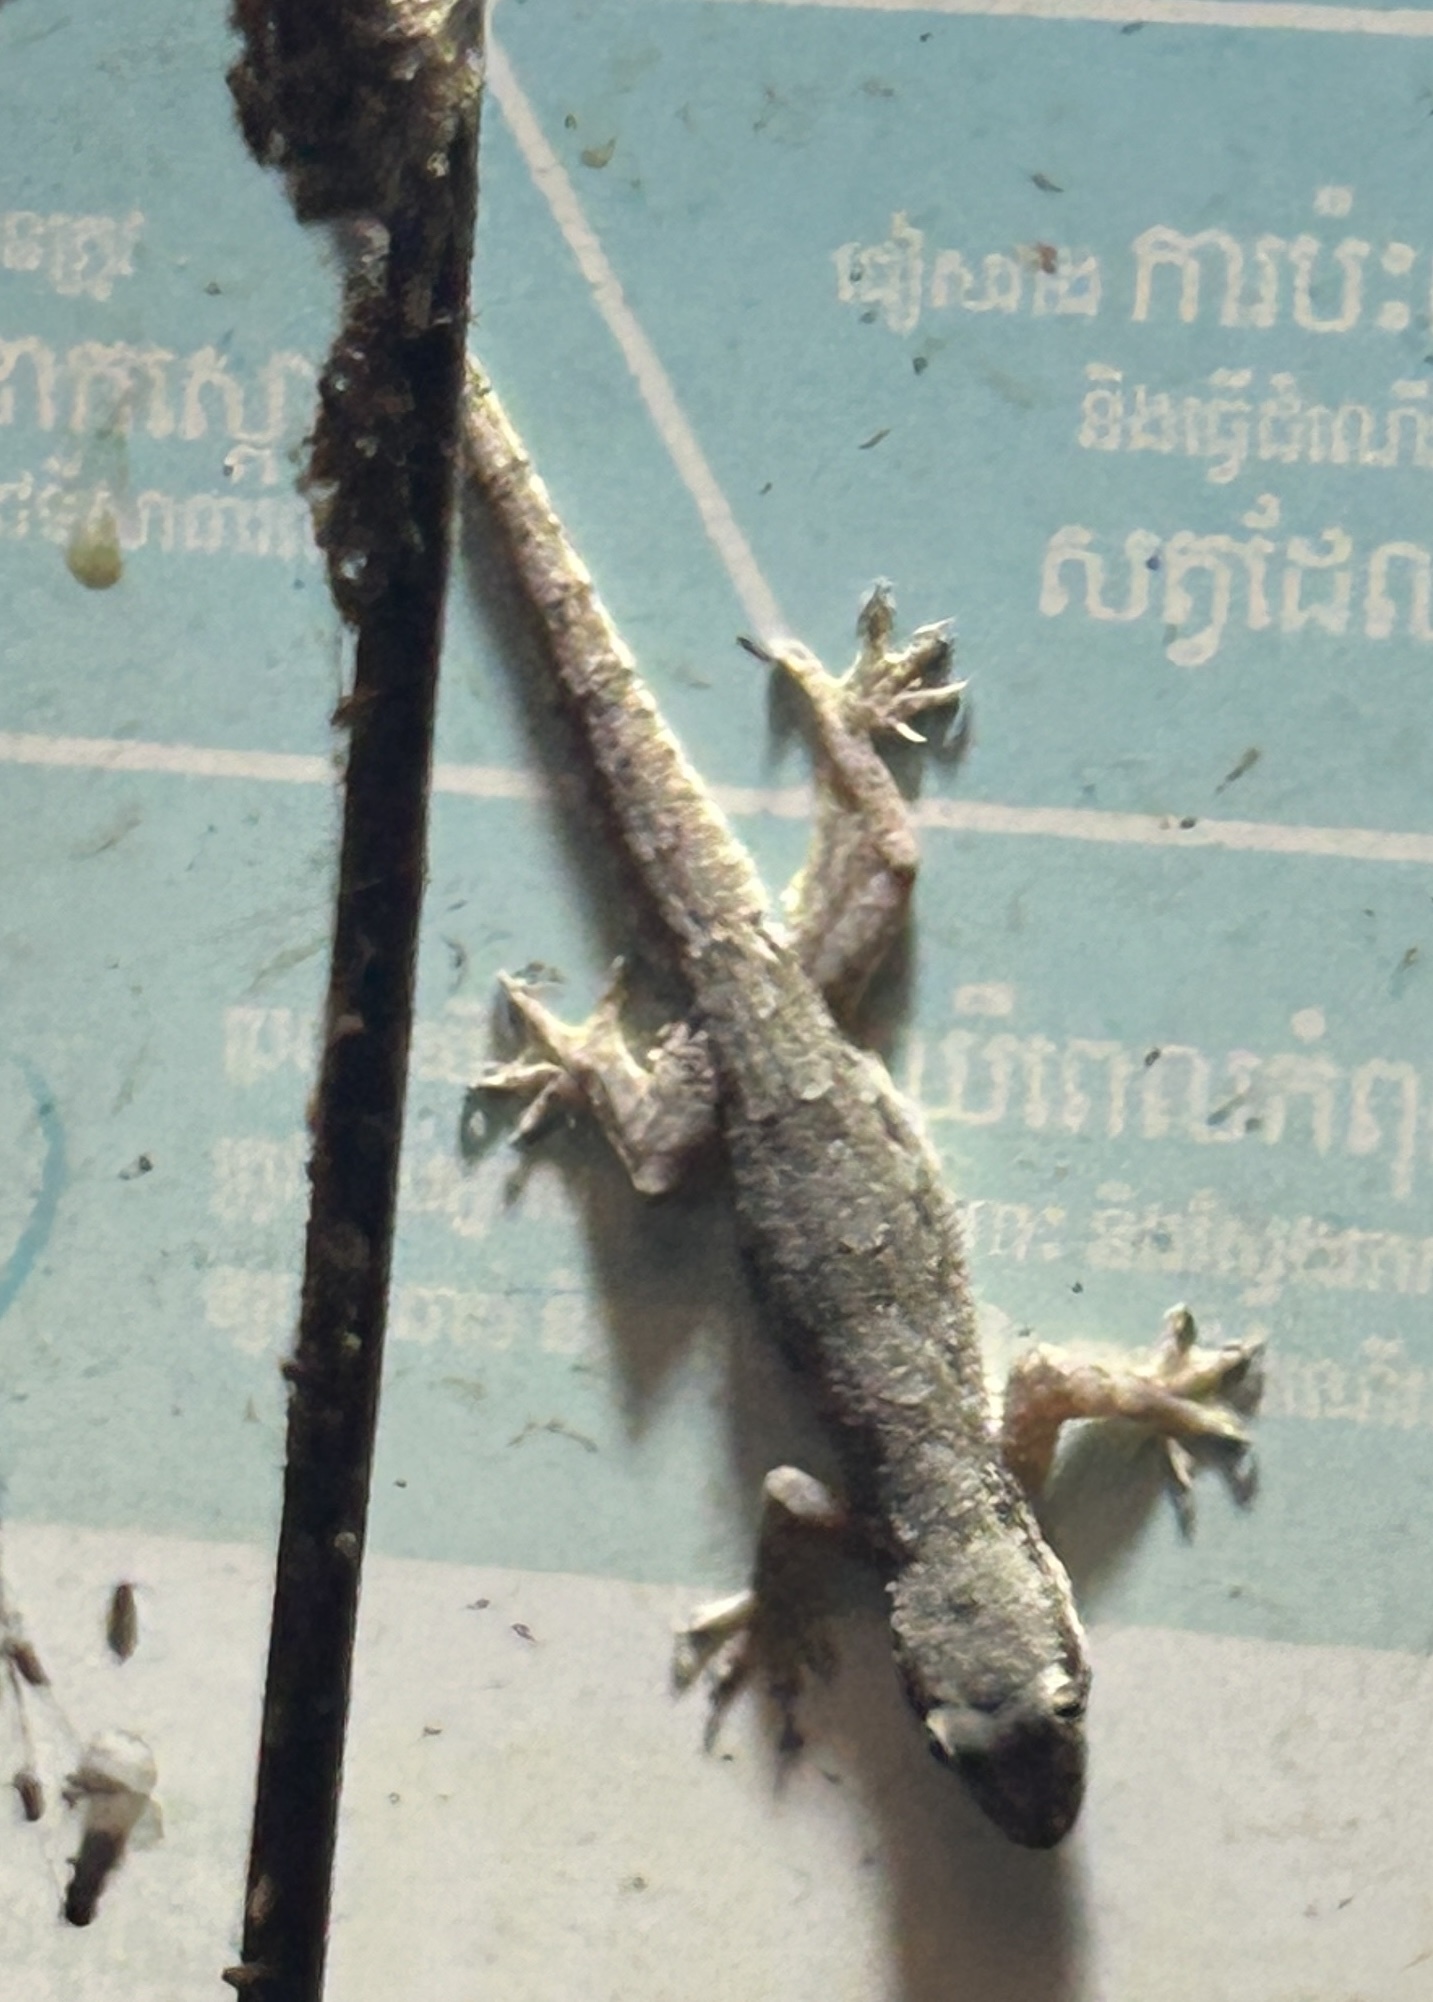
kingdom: Animalia
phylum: Chordata
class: Squamata
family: Gekkonidae
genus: Hemidactylus
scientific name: Hemidactylus platyurus
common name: Flat-tailed house gecko
